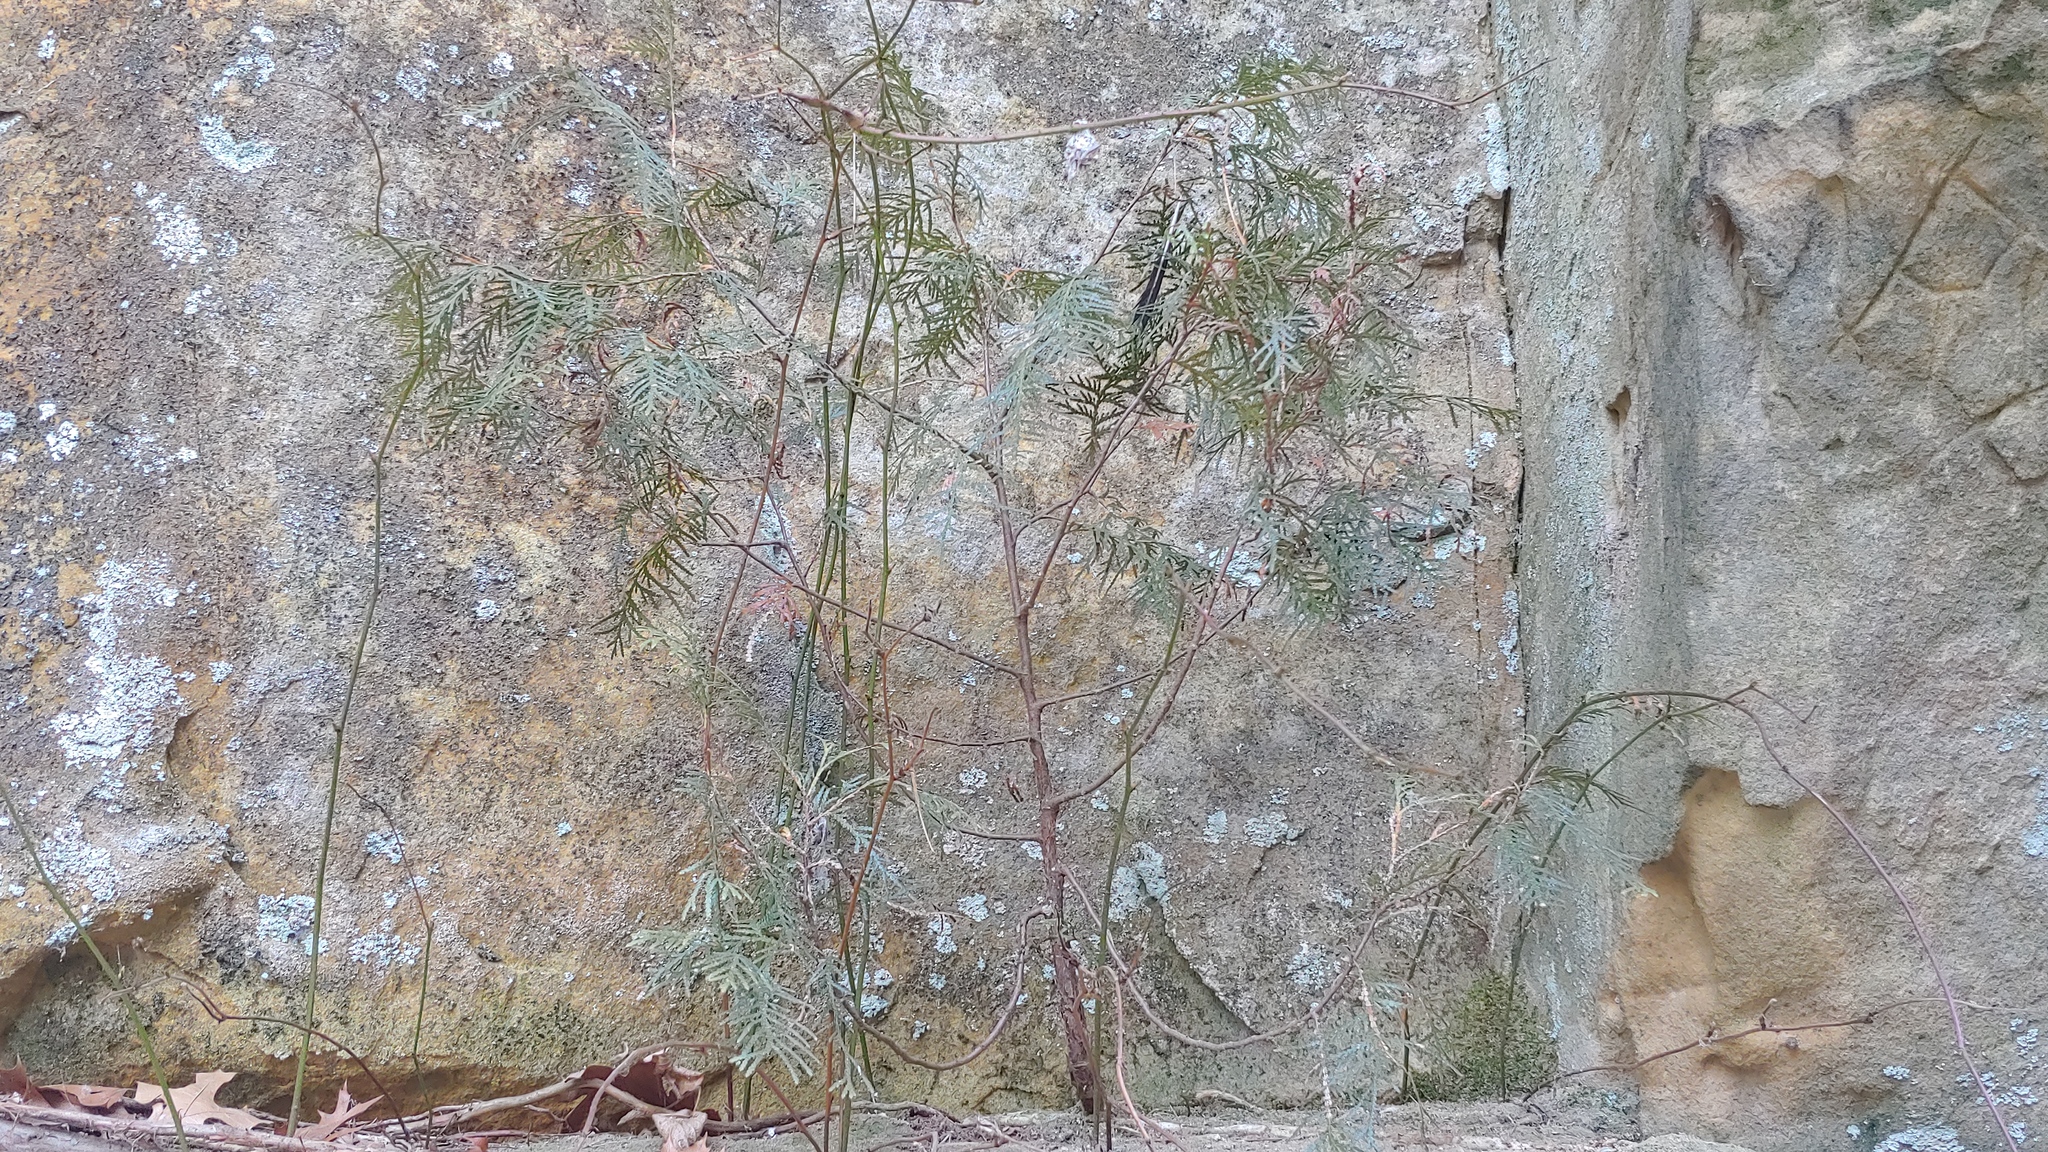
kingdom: Plantae
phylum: Tracheophyta
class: Pinopsida
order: Pinales
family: Cupressaceae
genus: Thuja
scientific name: Thuja occidentalis
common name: Northern white-cedar
